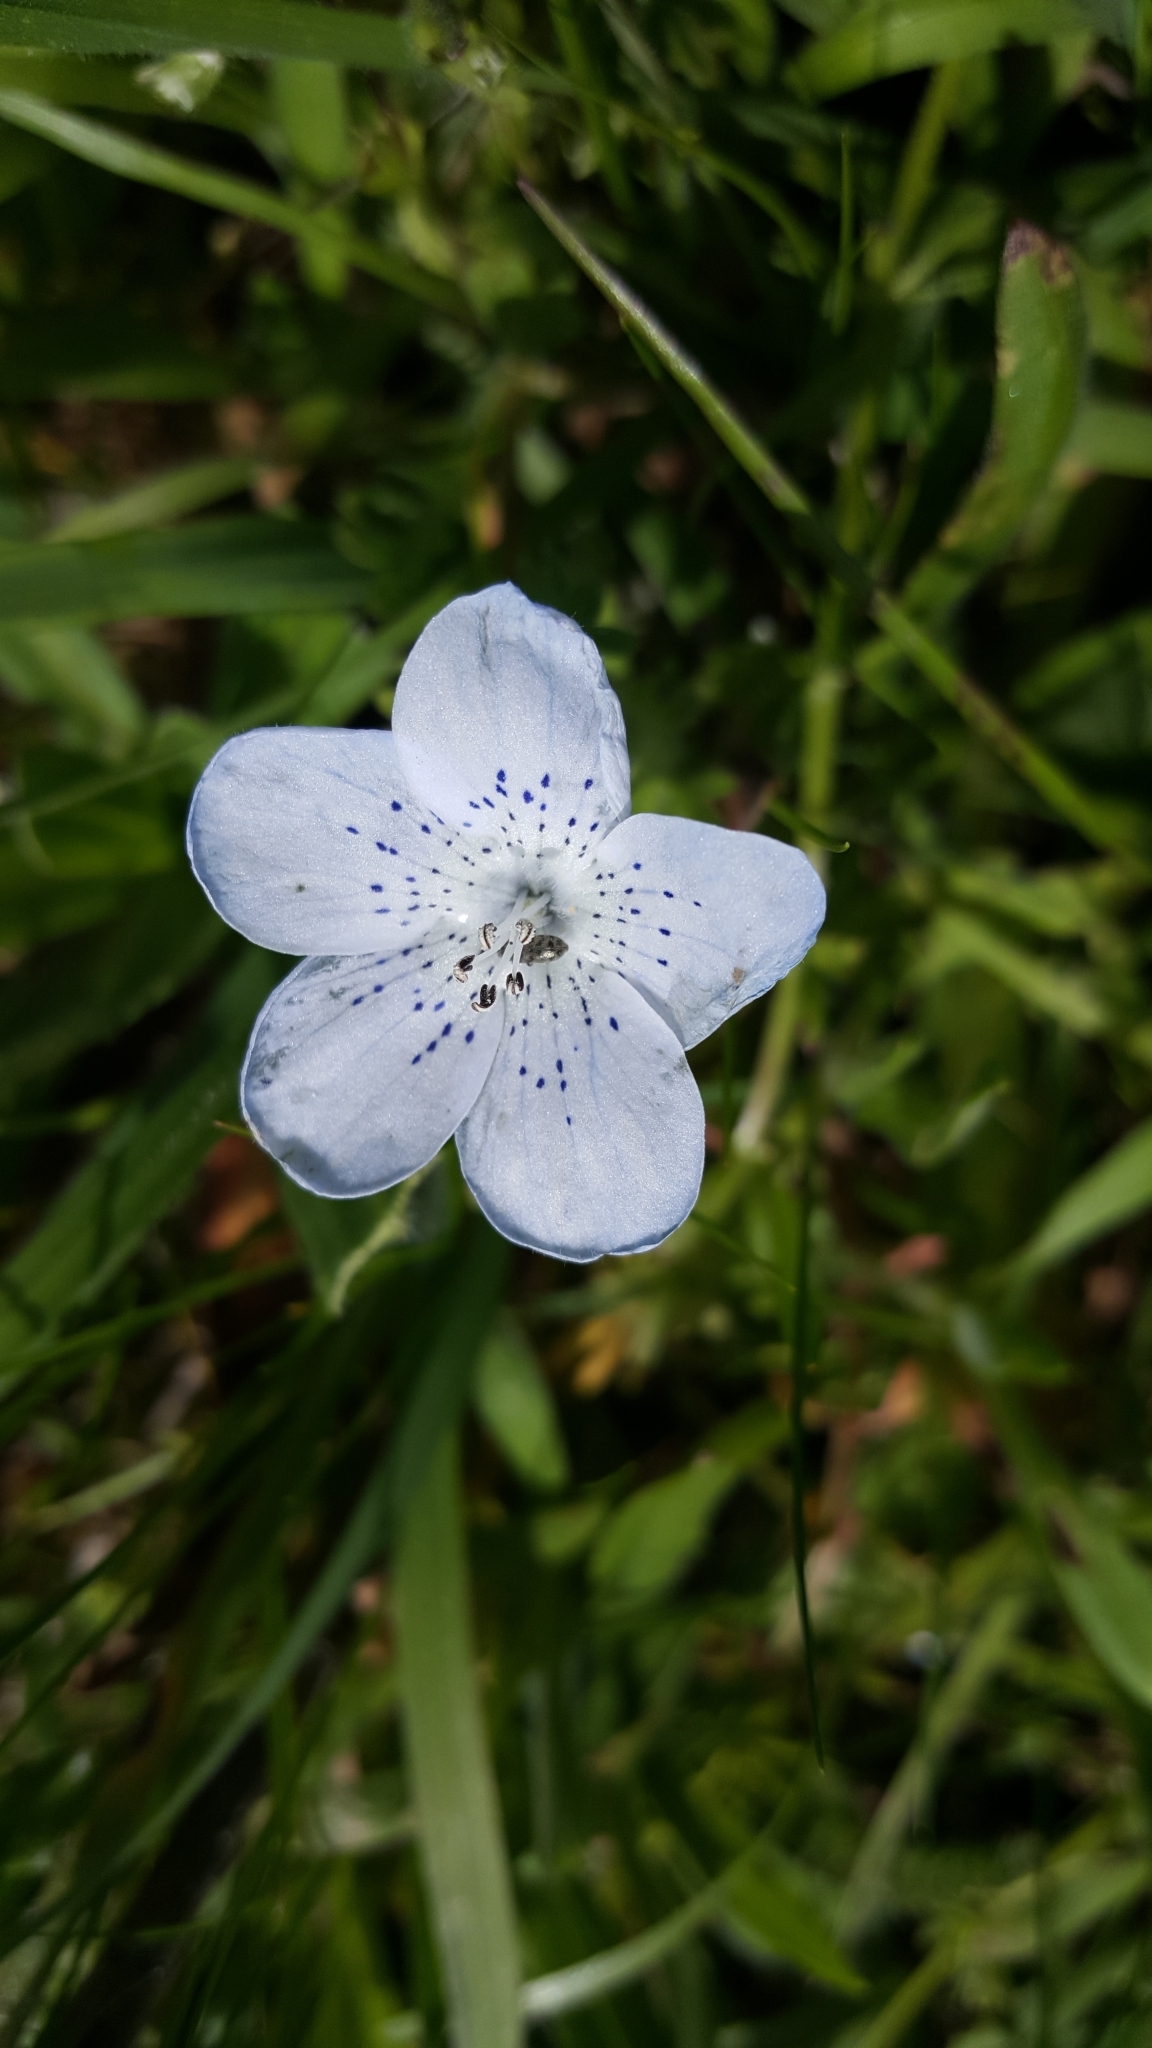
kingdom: Plantae
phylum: Tracheophyta
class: Magnoliopsida
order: Boraginales
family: Hydrophyllaceae
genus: Nemophila
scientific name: Nemophila menziesii
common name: Baby's-blue-eyes
